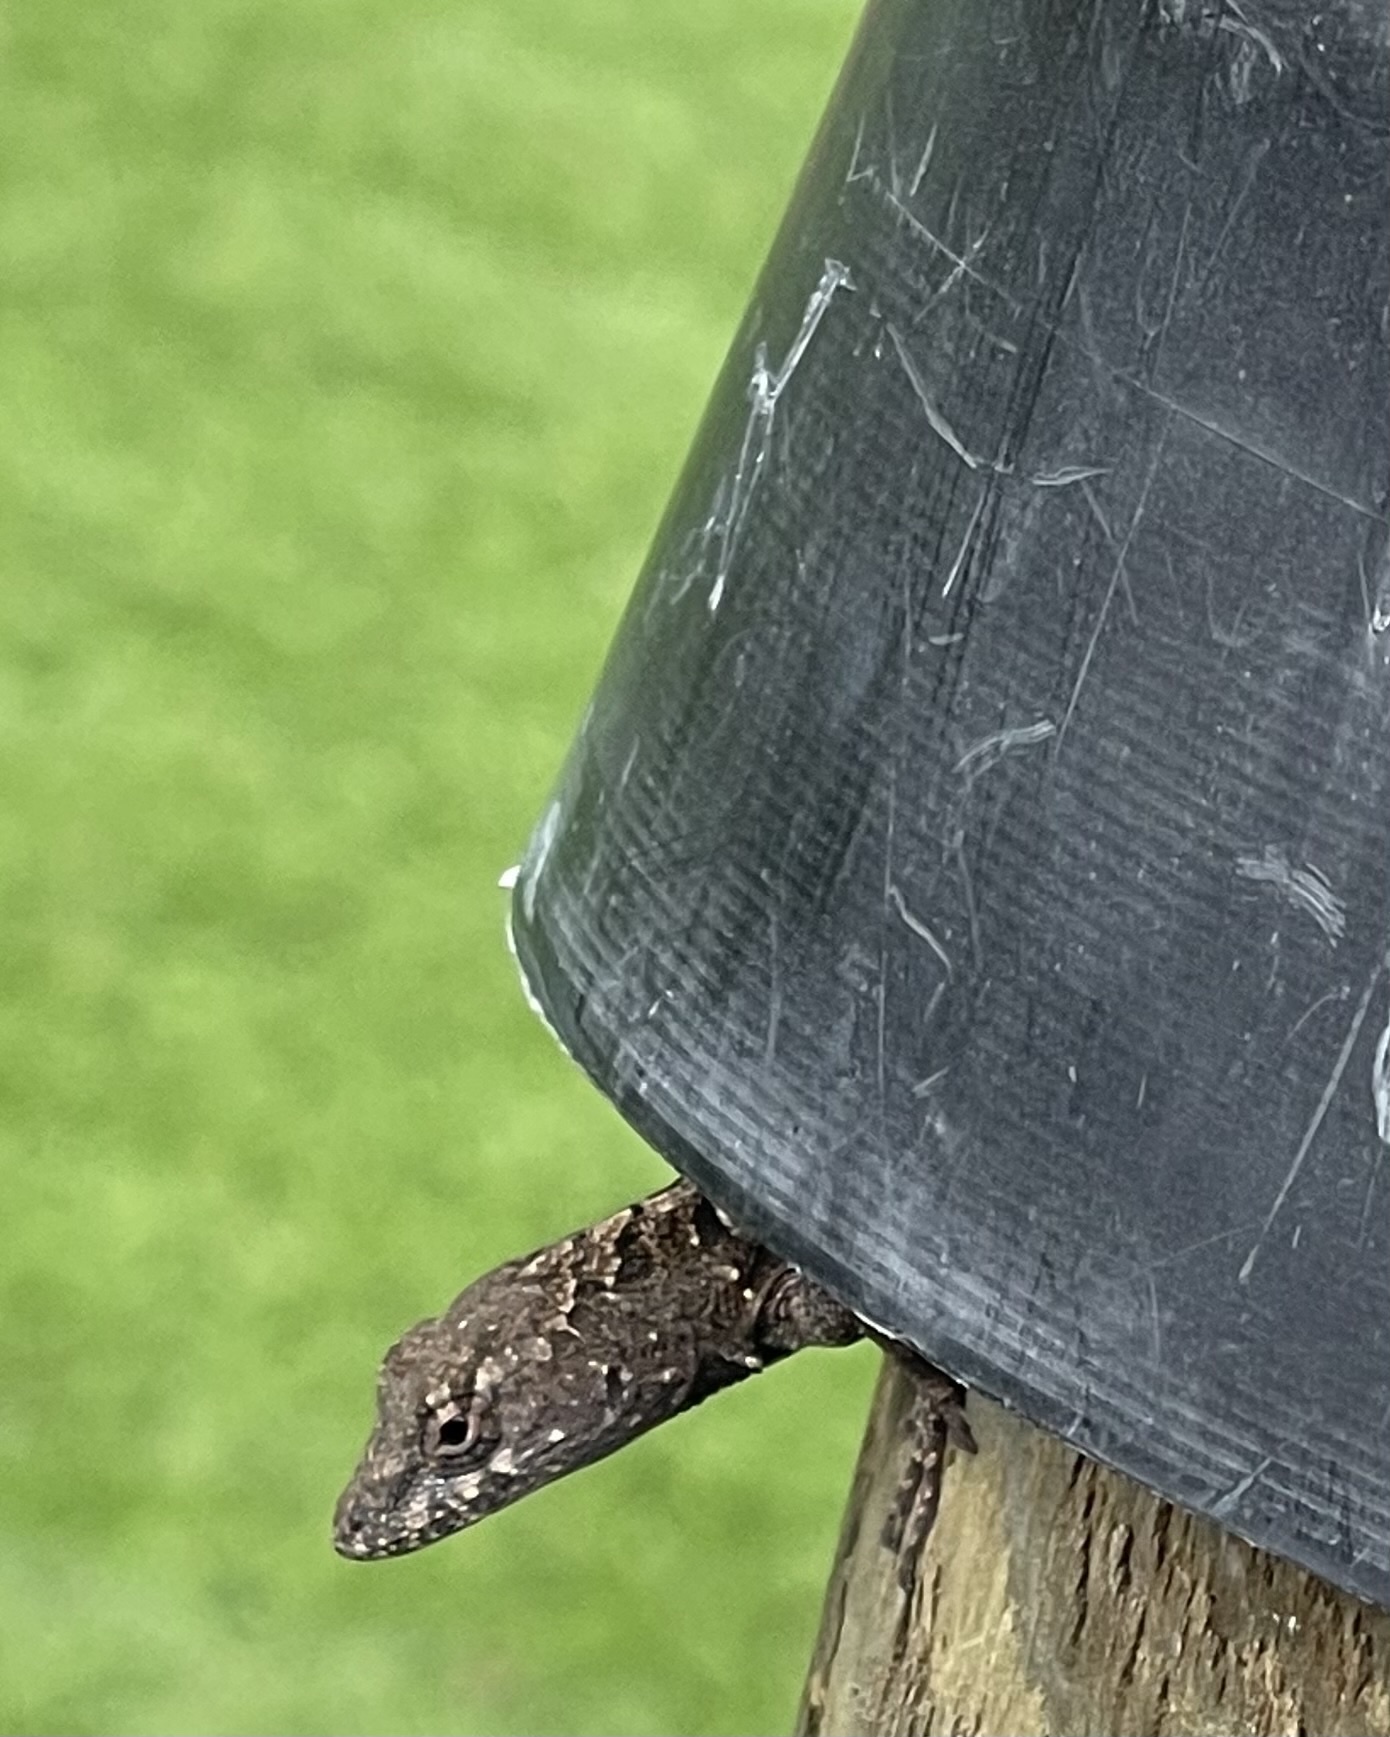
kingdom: Animalia
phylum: Chordata
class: Squamata
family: Dactyloidae
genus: Anolis
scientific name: Anolis sagrei
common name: Brown anole
